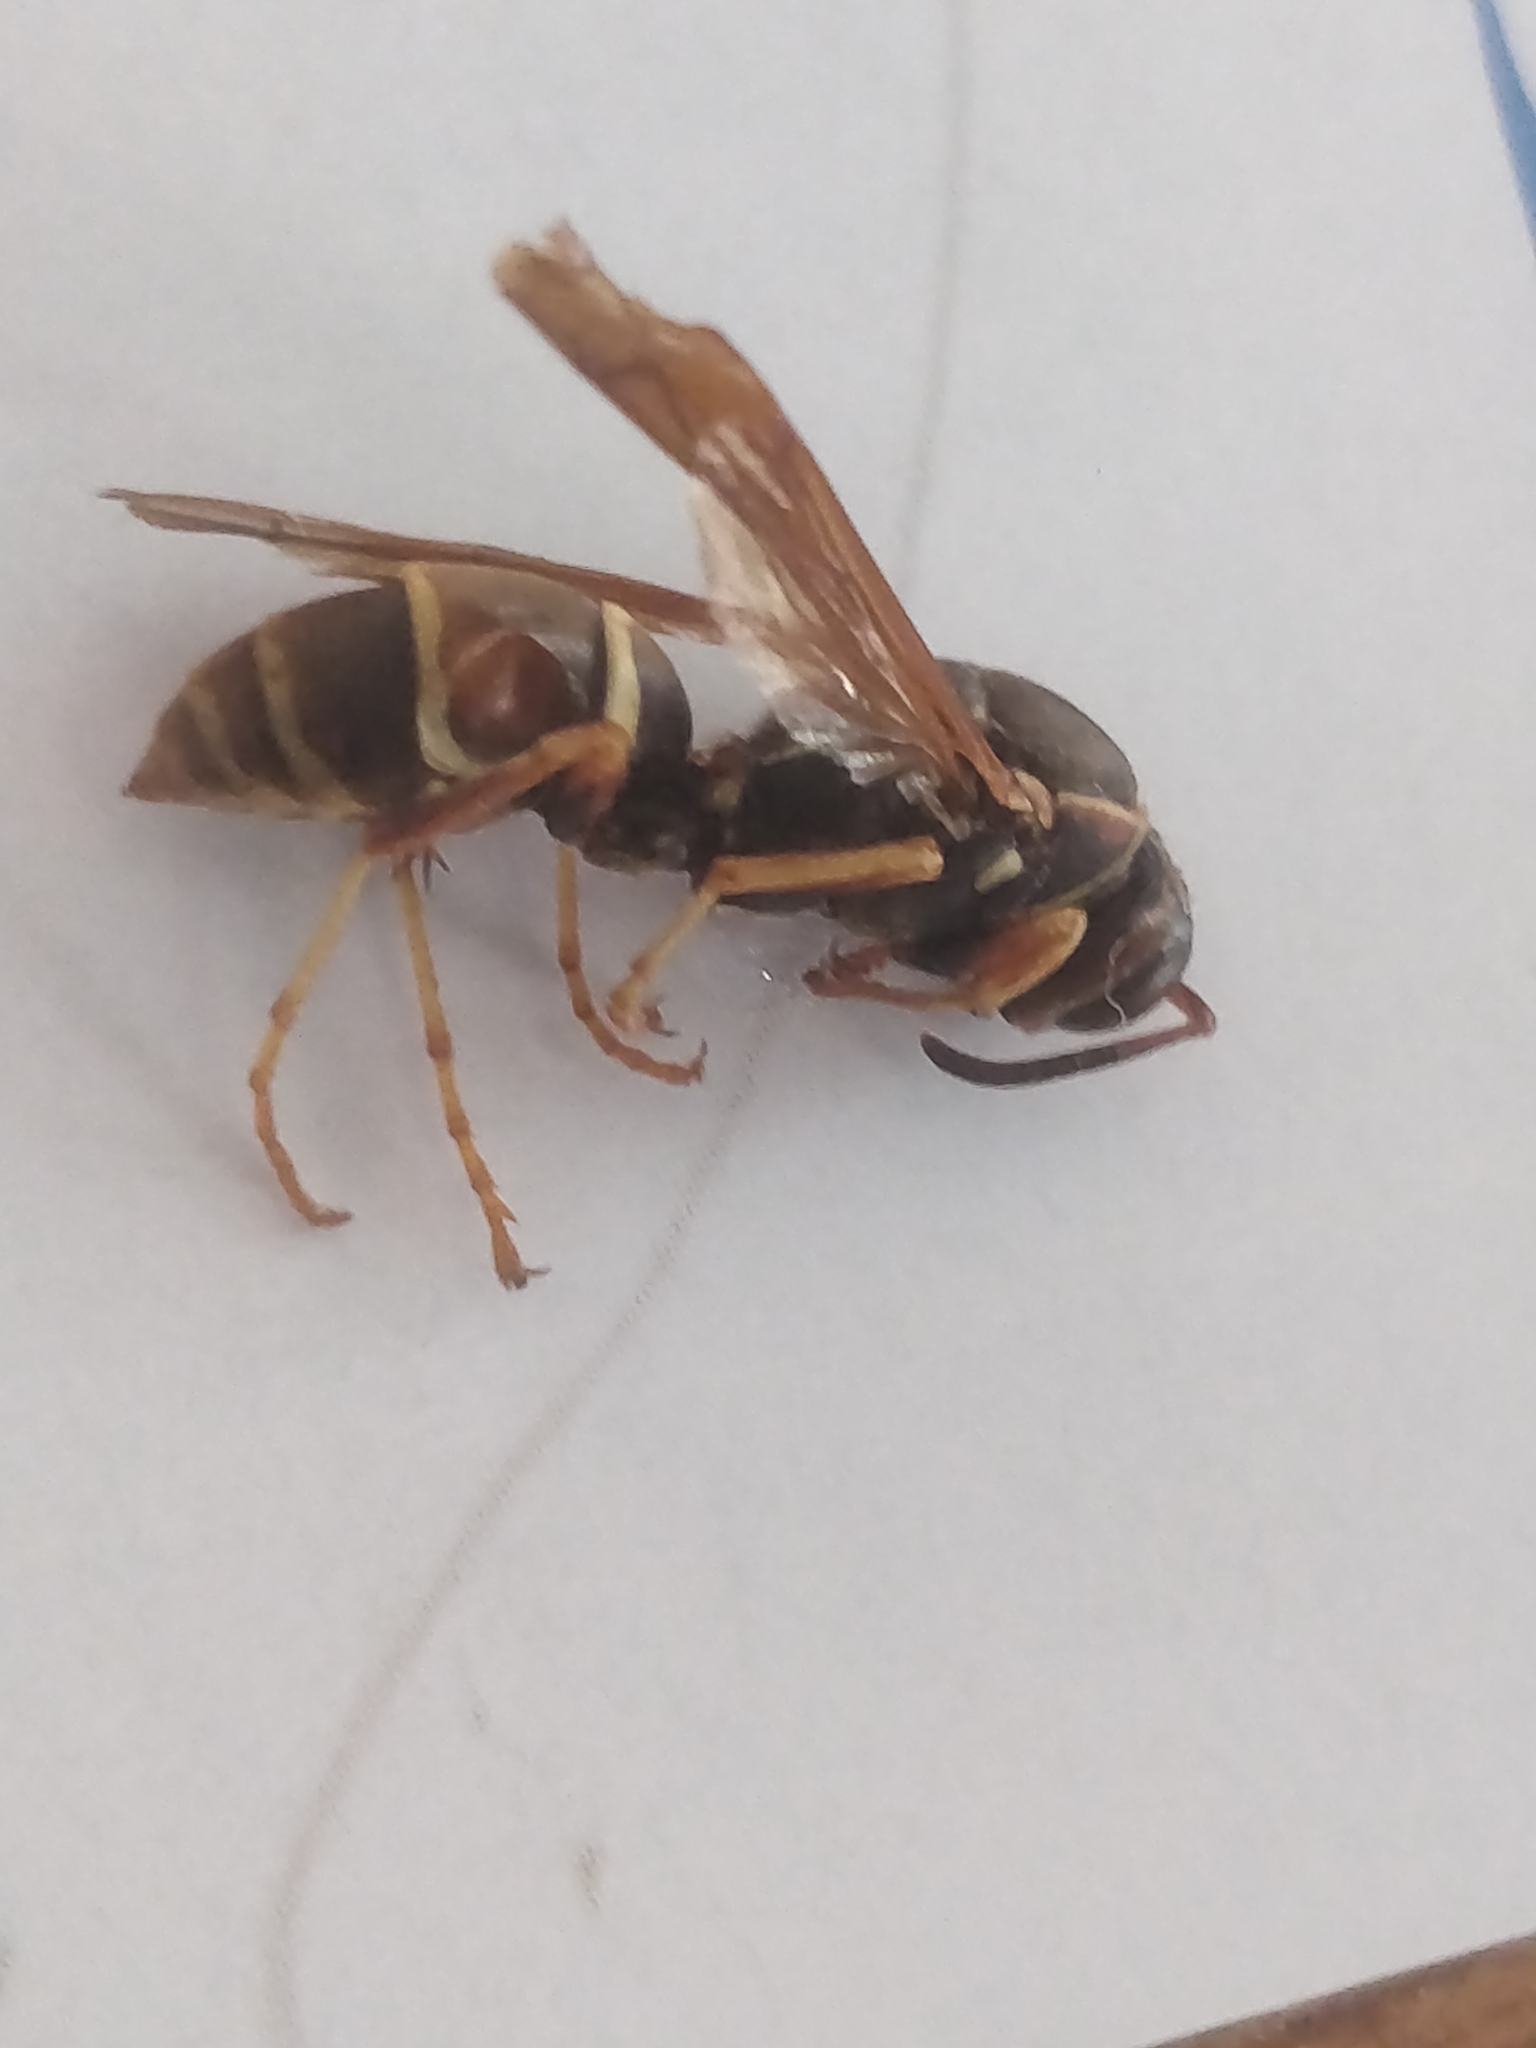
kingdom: Animalia
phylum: Arthropoda
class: Insecta
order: Hymenoptera
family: Eumenidae
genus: Polistes
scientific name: Polistes fuscatus
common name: Dark paper wasp
